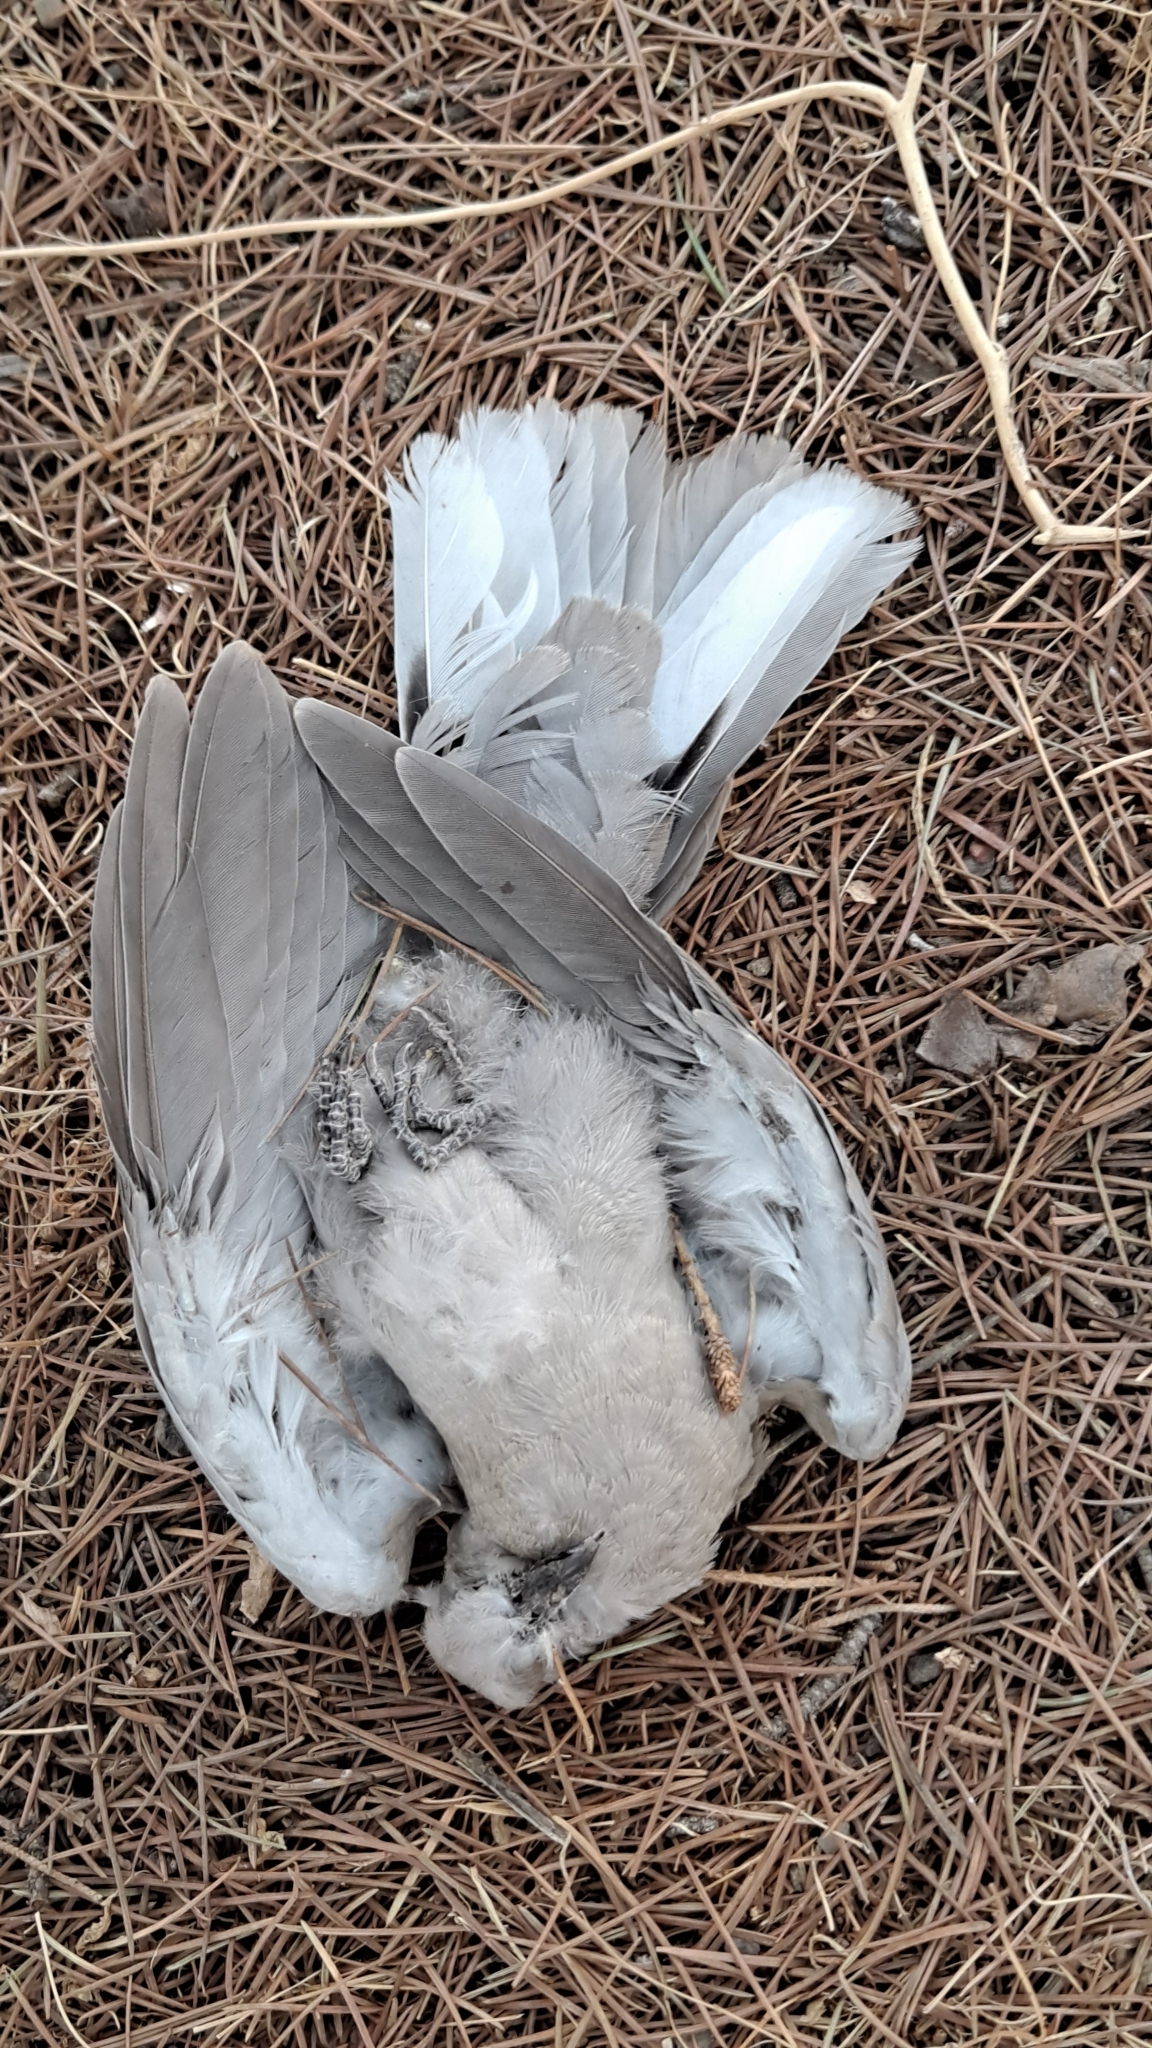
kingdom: Animalia
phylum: Chordata
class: Aves
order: Columbiformes
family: Columbidae
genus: Streptopelia
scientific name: Streptopelia decaocto
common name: Eurasian collared dove
